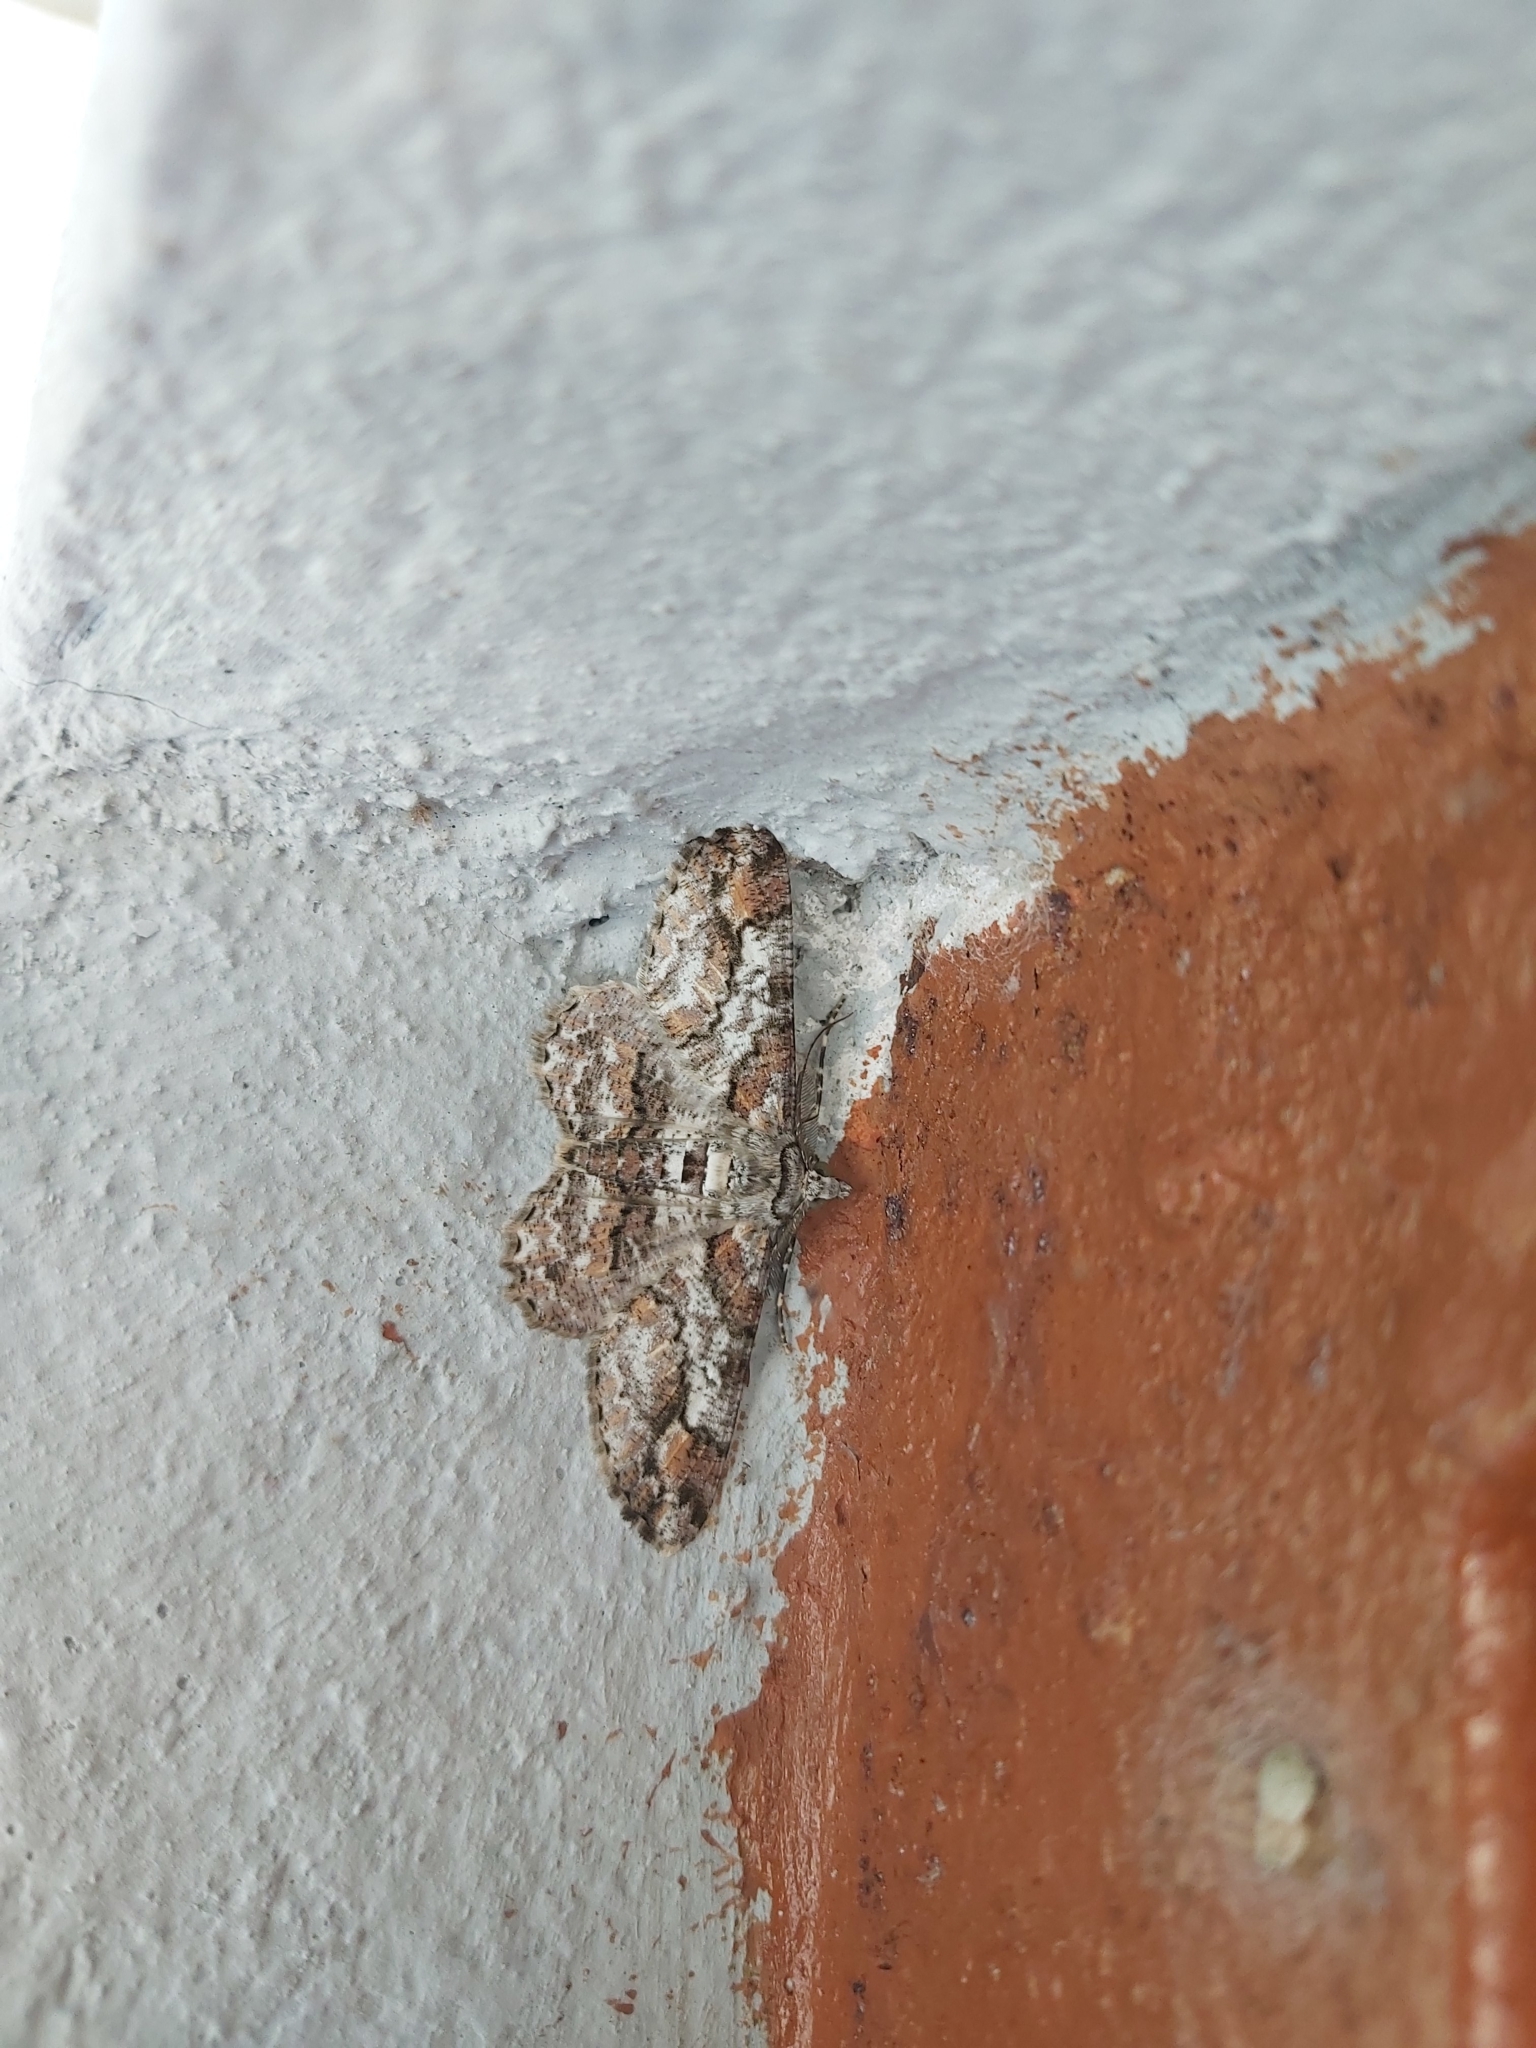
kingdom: Animalia
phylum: Arthropoda
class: Insecta
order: Lepidoptera
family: Geometridae
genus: Cleora
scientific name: Cleora acaciaria
